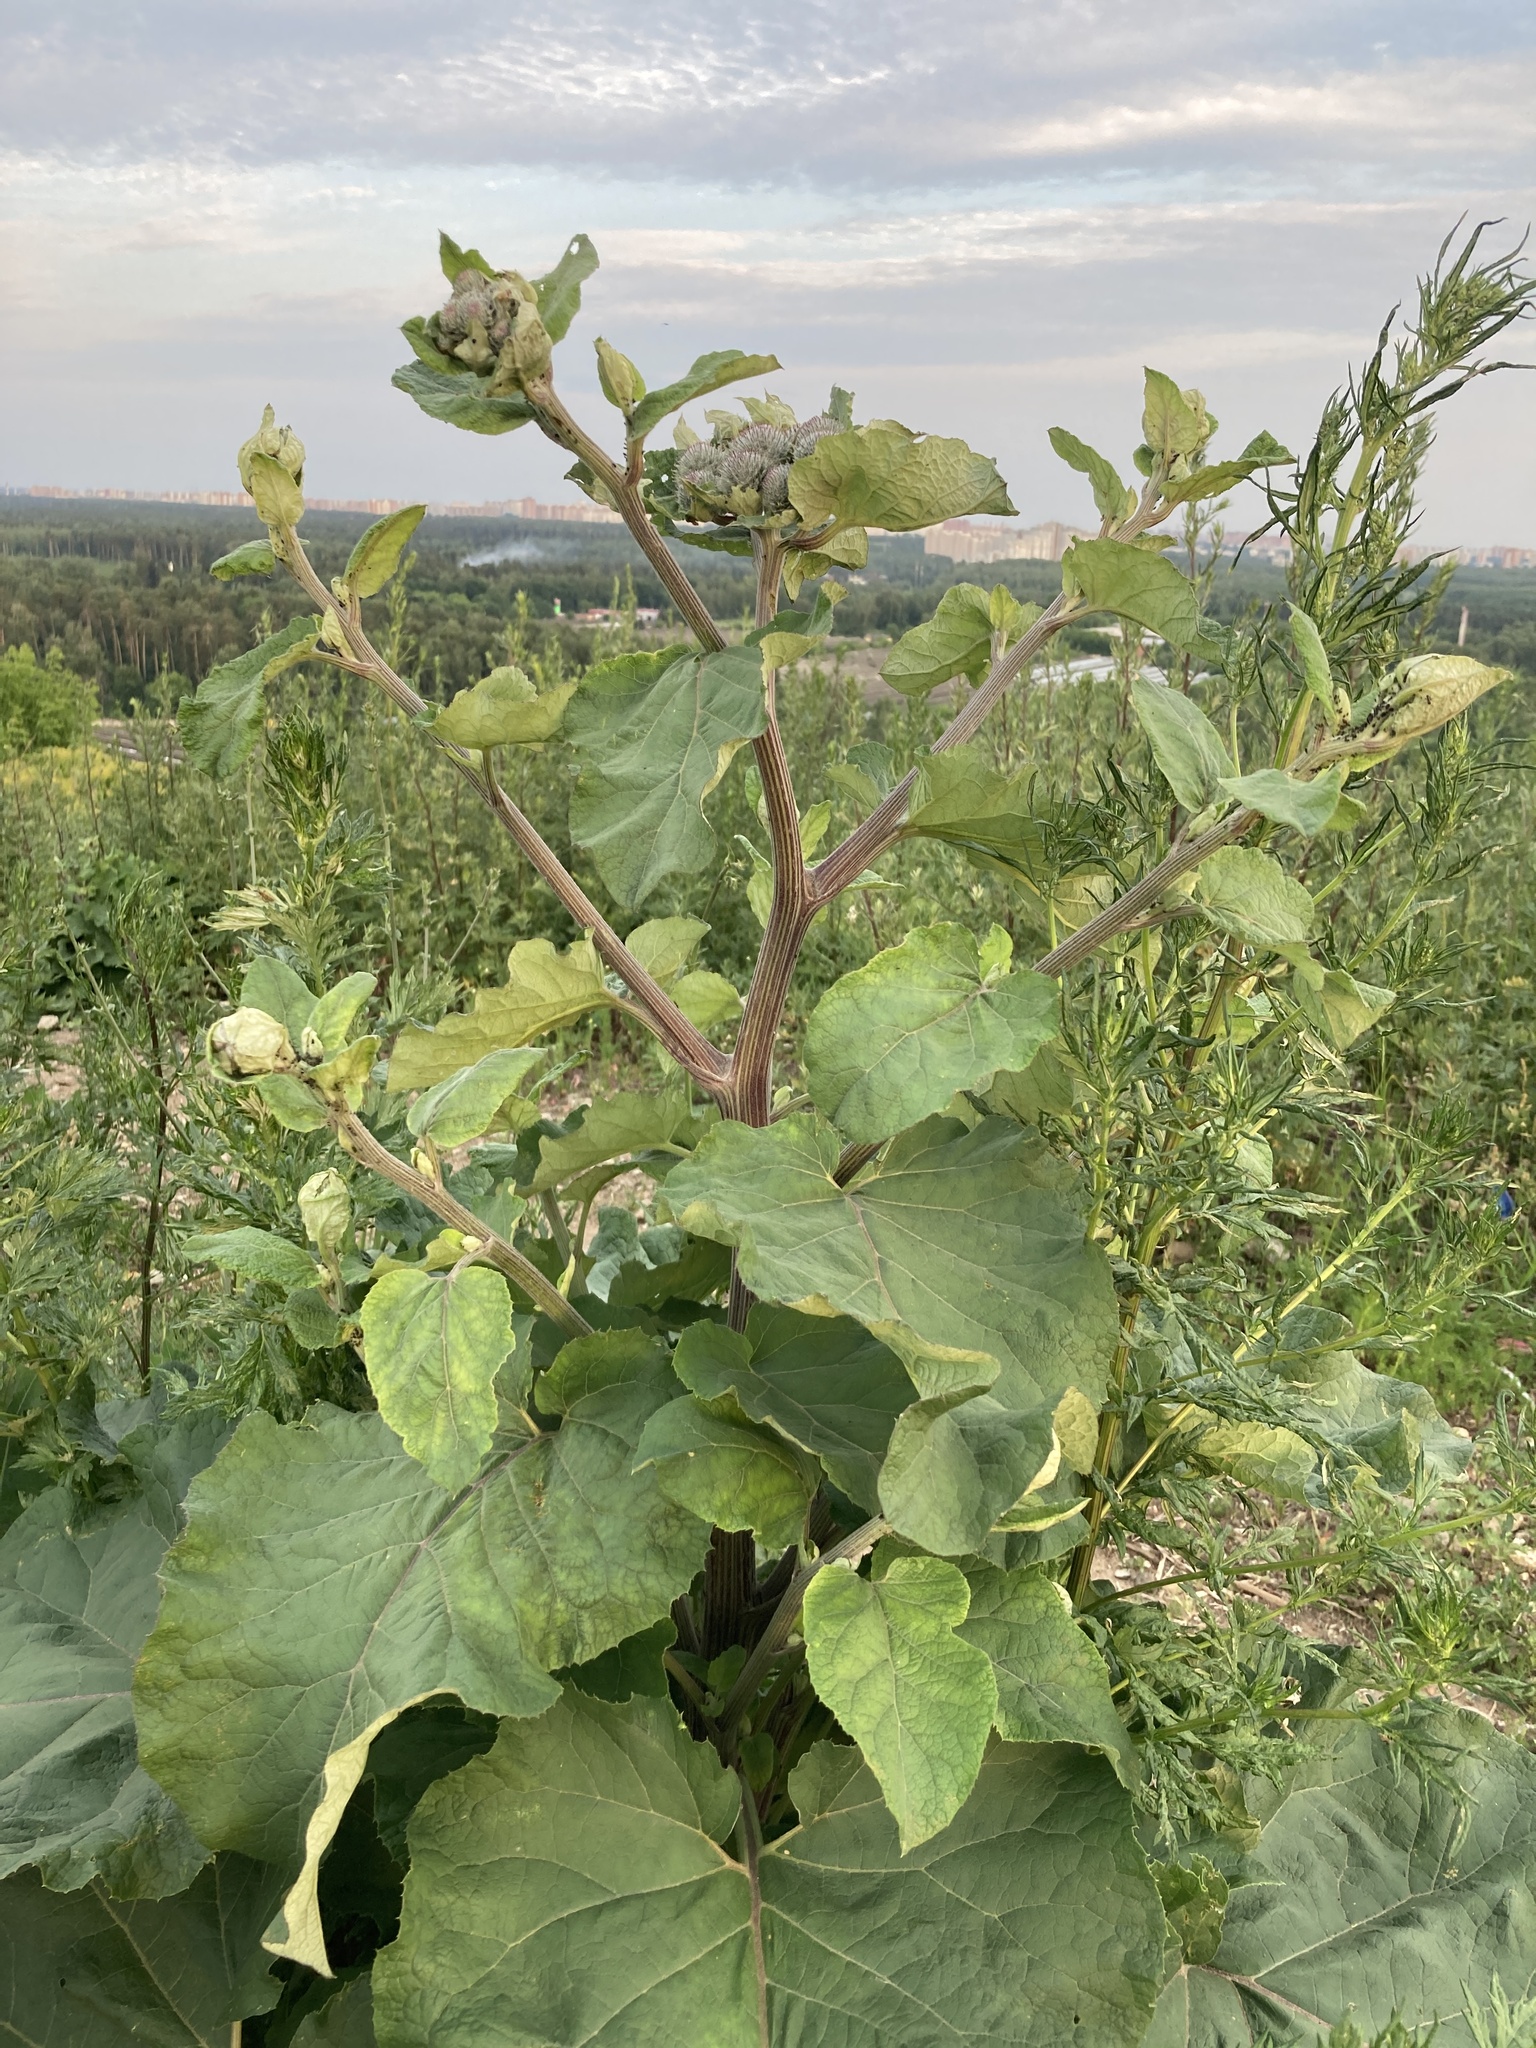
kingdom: Plantae
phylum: Tracheophyta
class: Magnoliopsida
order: Asterales
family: Asteraceae
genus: Arctium
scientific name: Arctium tomentosum
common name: Woolly burdock
